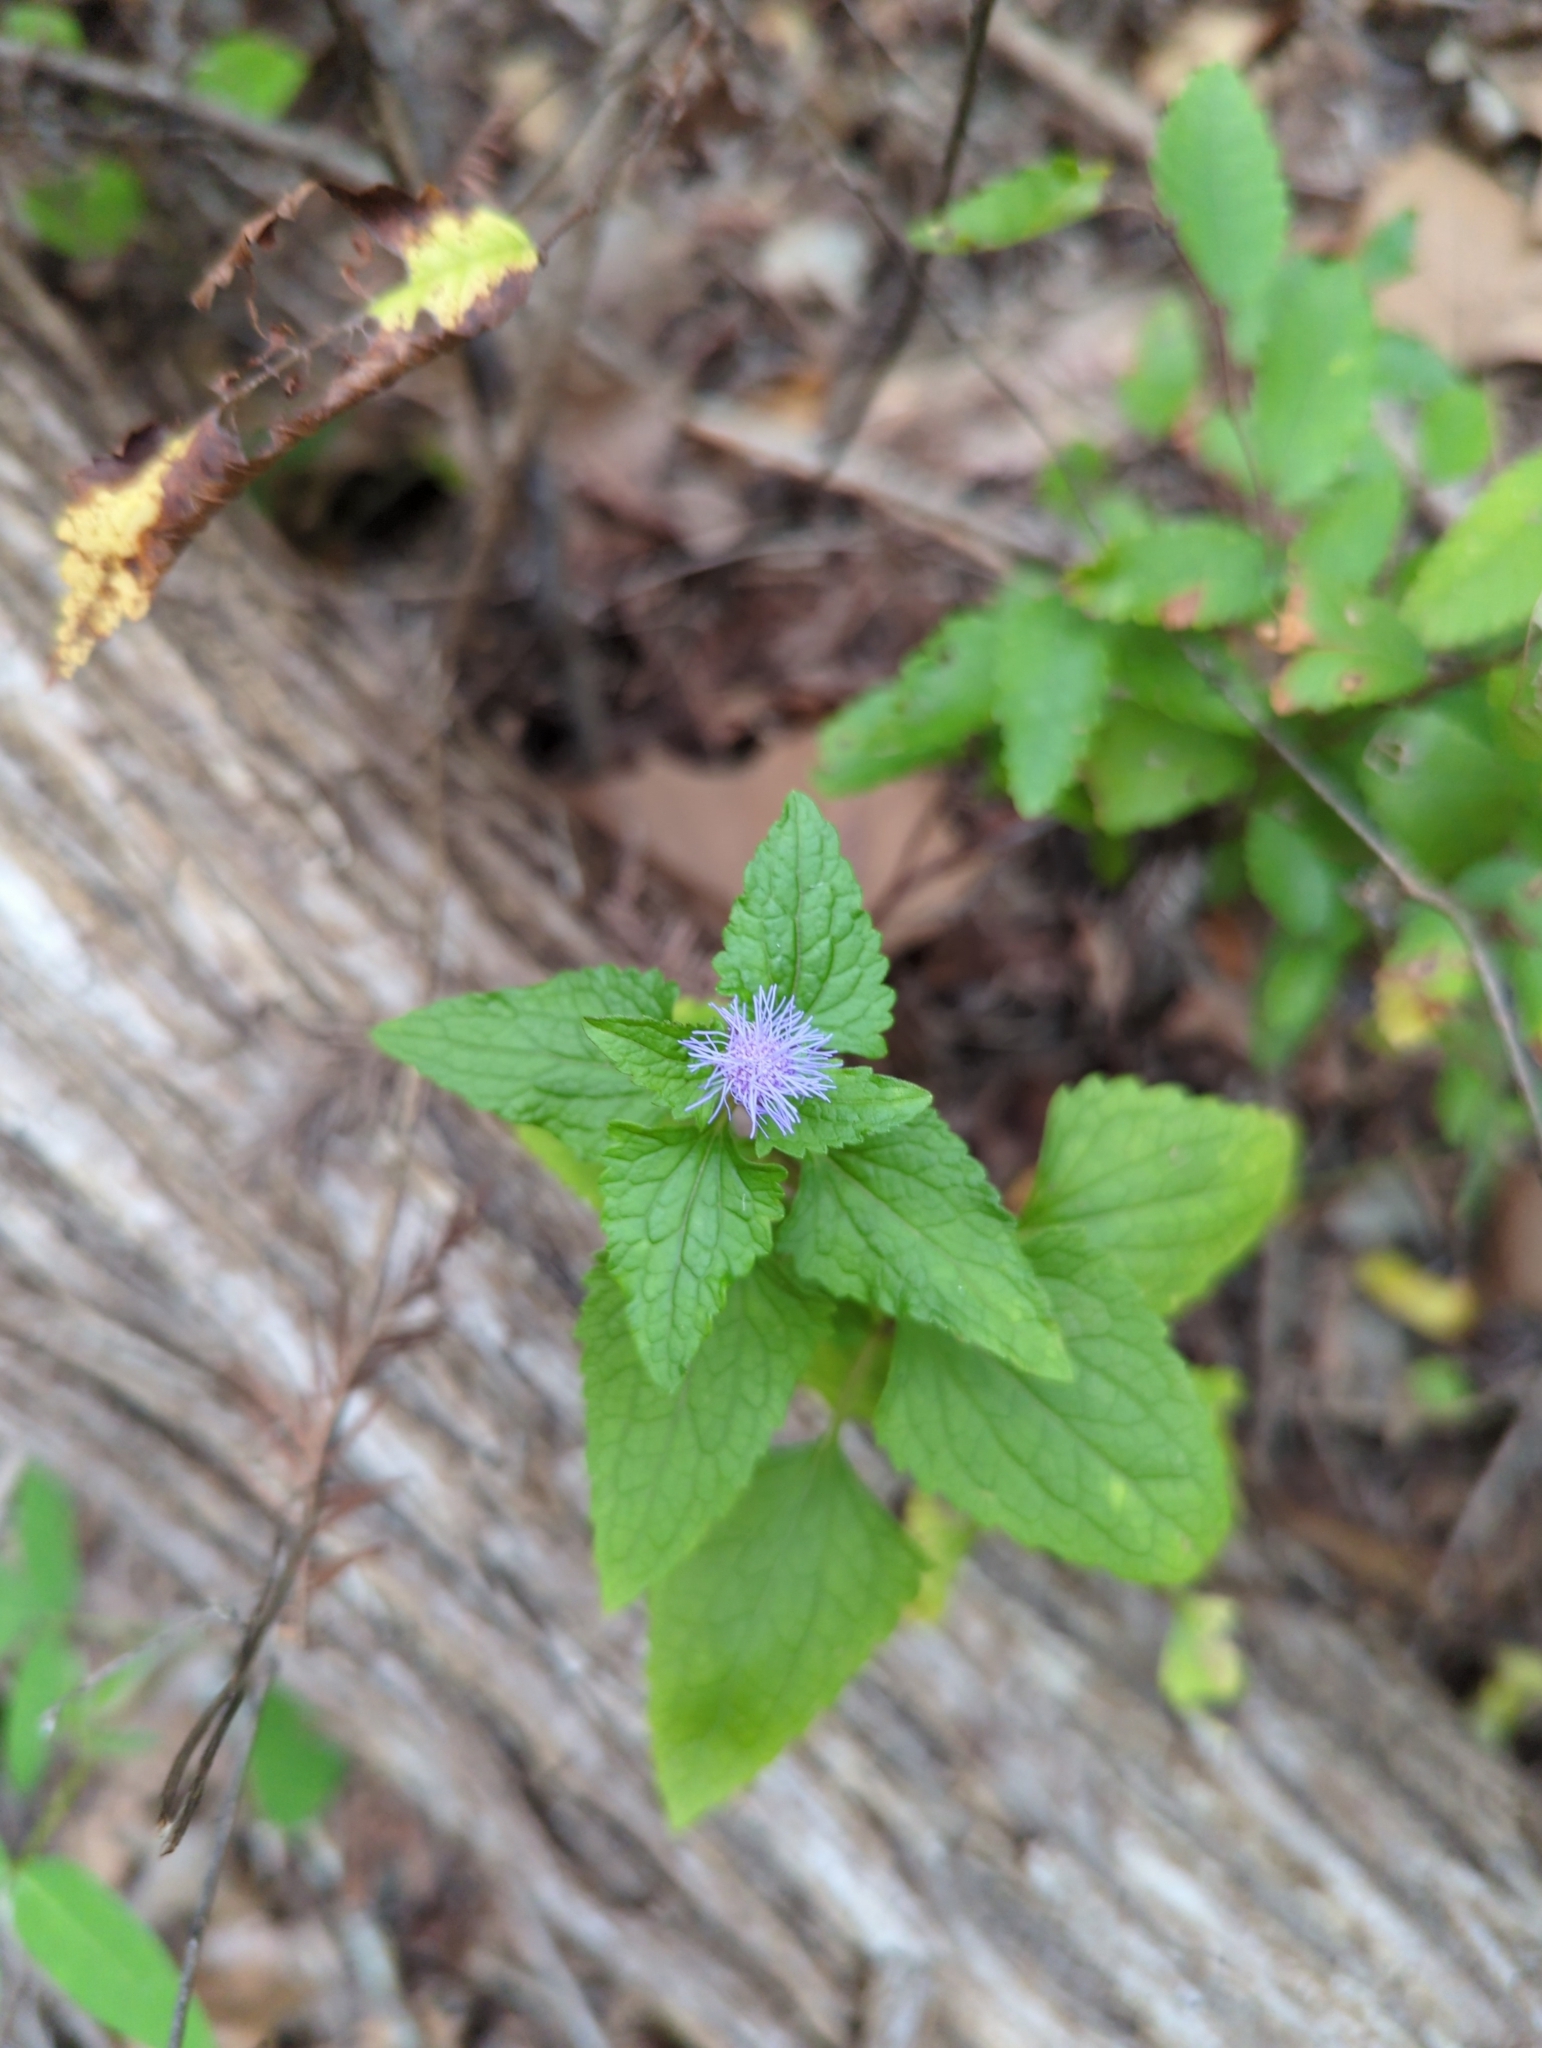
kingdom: Plantae
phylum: Tracheophyta
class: Magnoliopsida
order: Asterales
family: Asteraceae
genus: Conoclinium
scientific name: Conoclinium coelestinum
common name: Blue mistflower
